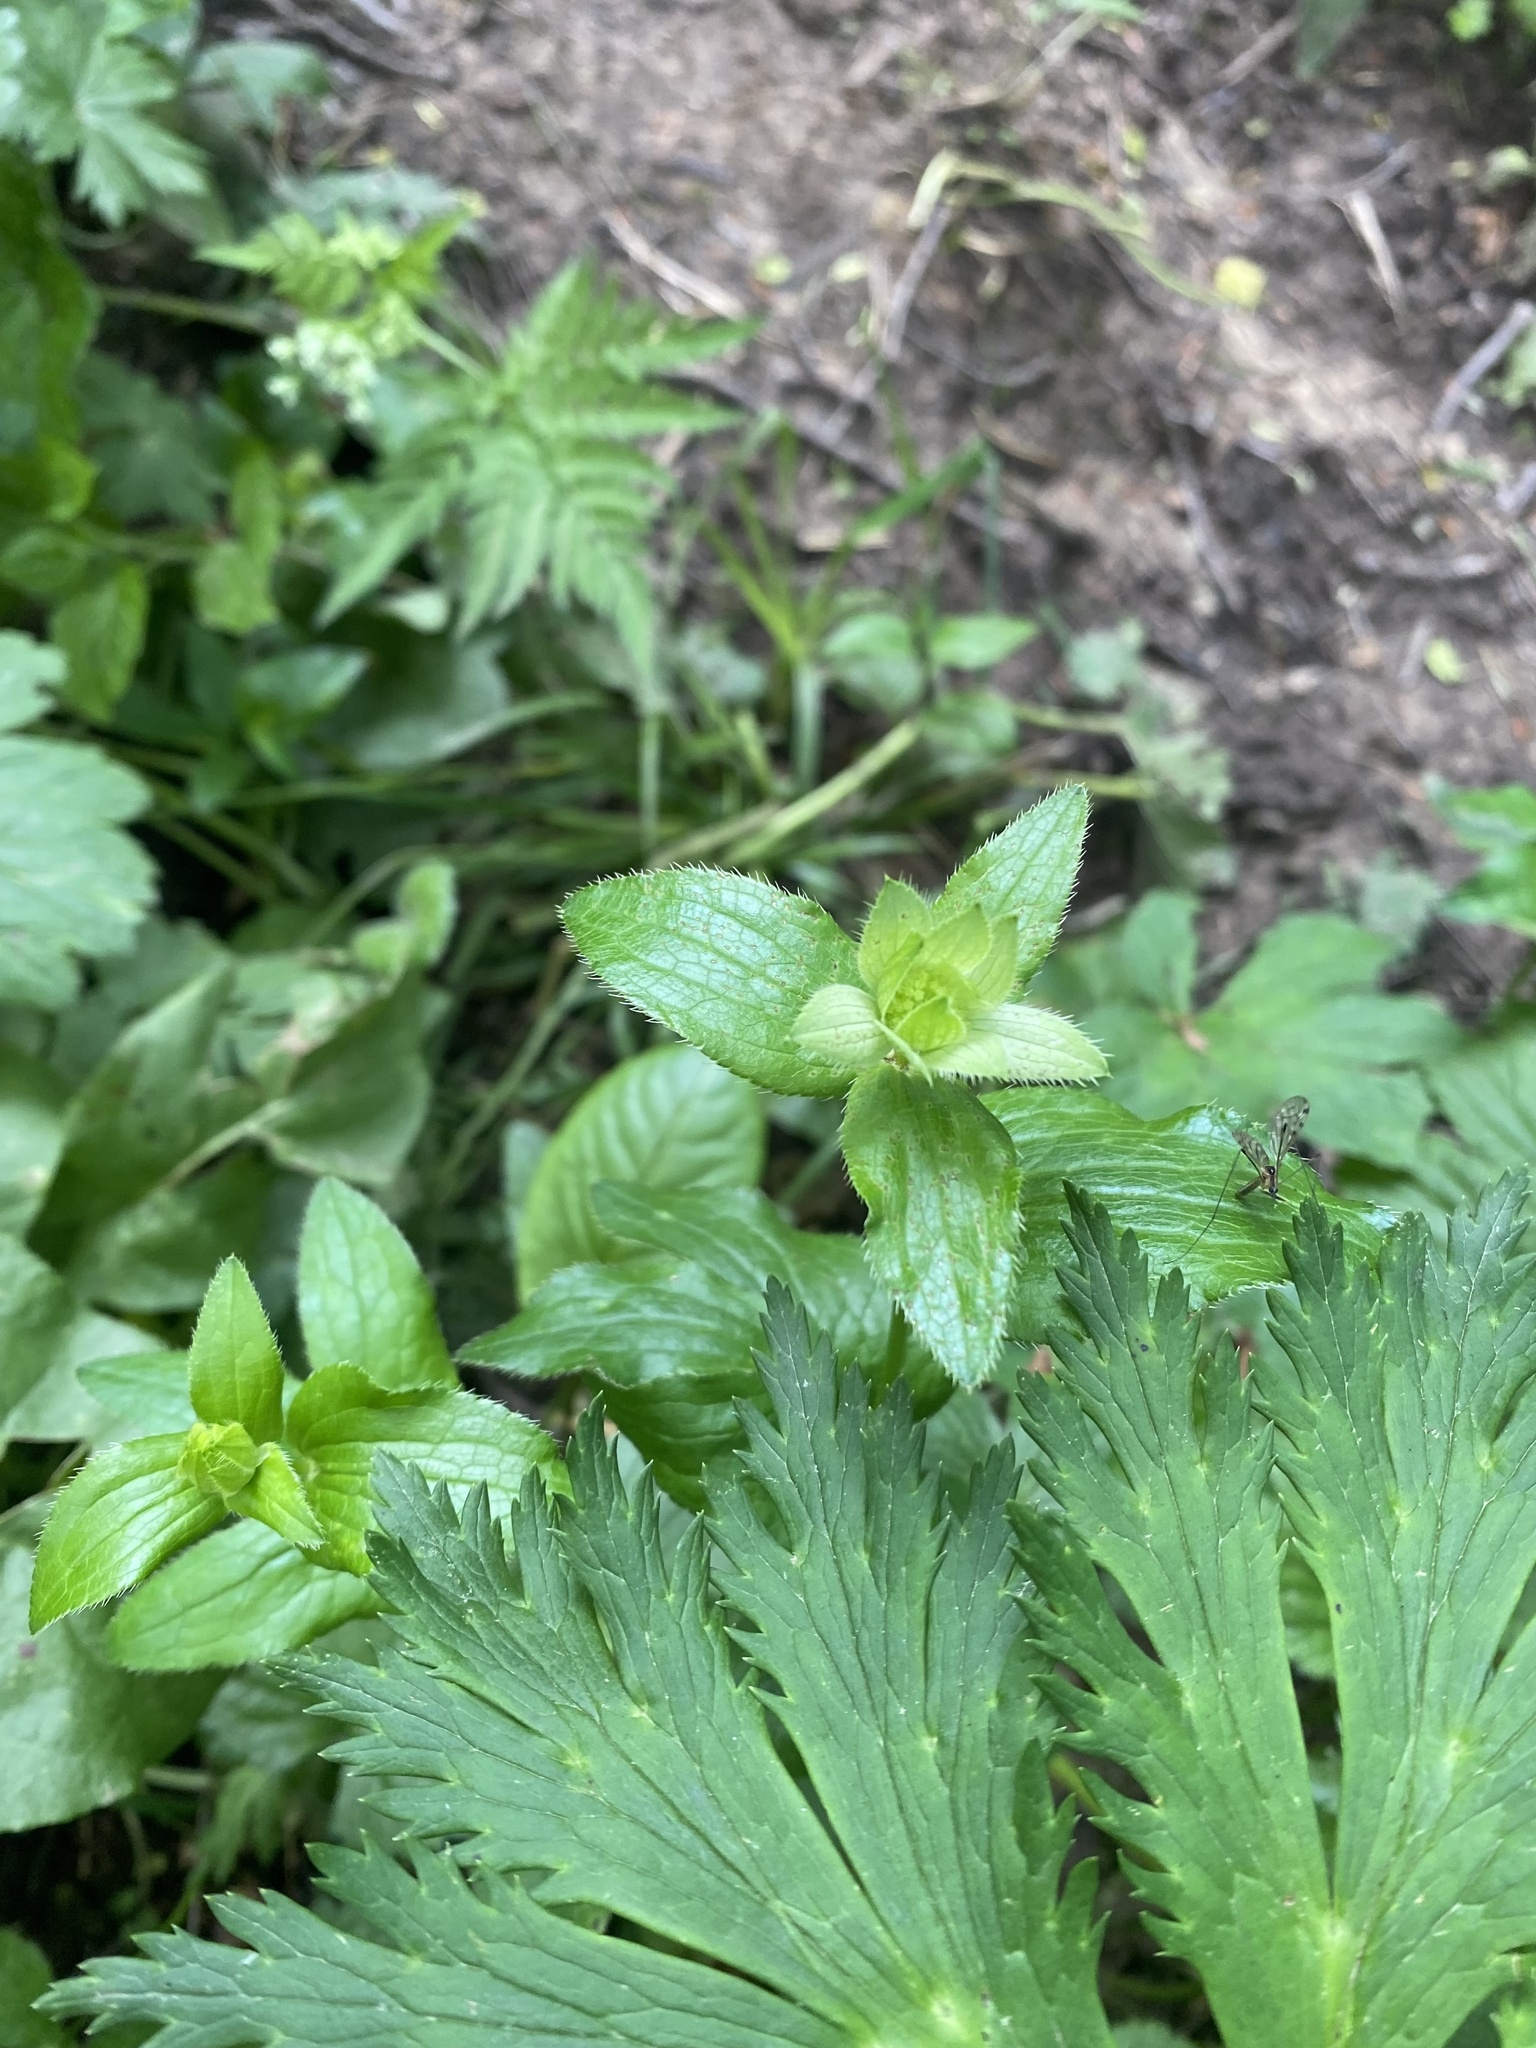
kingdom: Plantae
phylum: Tracheophyta
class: Magnoliopsida
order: Apiales
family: Apiaceae
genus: Astrantia
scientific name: Astrantia maxima
